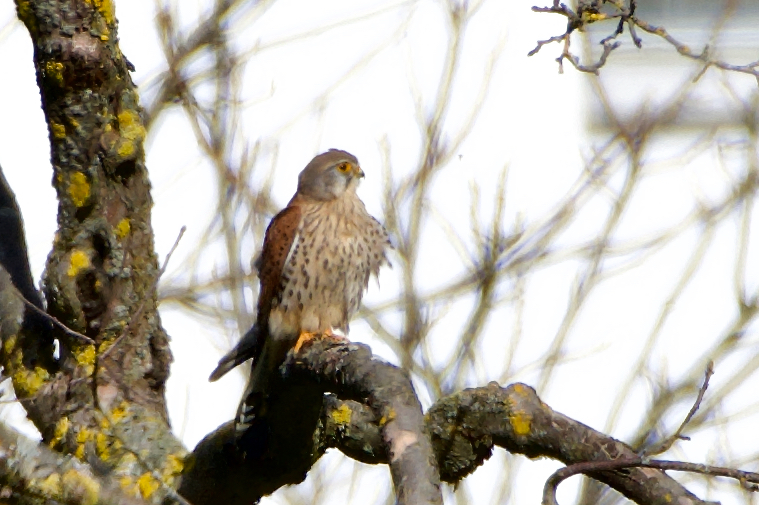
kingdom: Animalia
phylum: Chordata
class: Aves
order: Falconiformes
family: Falconidae
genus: Falco
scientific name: Falco tinnunculus
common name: Common kestrel
